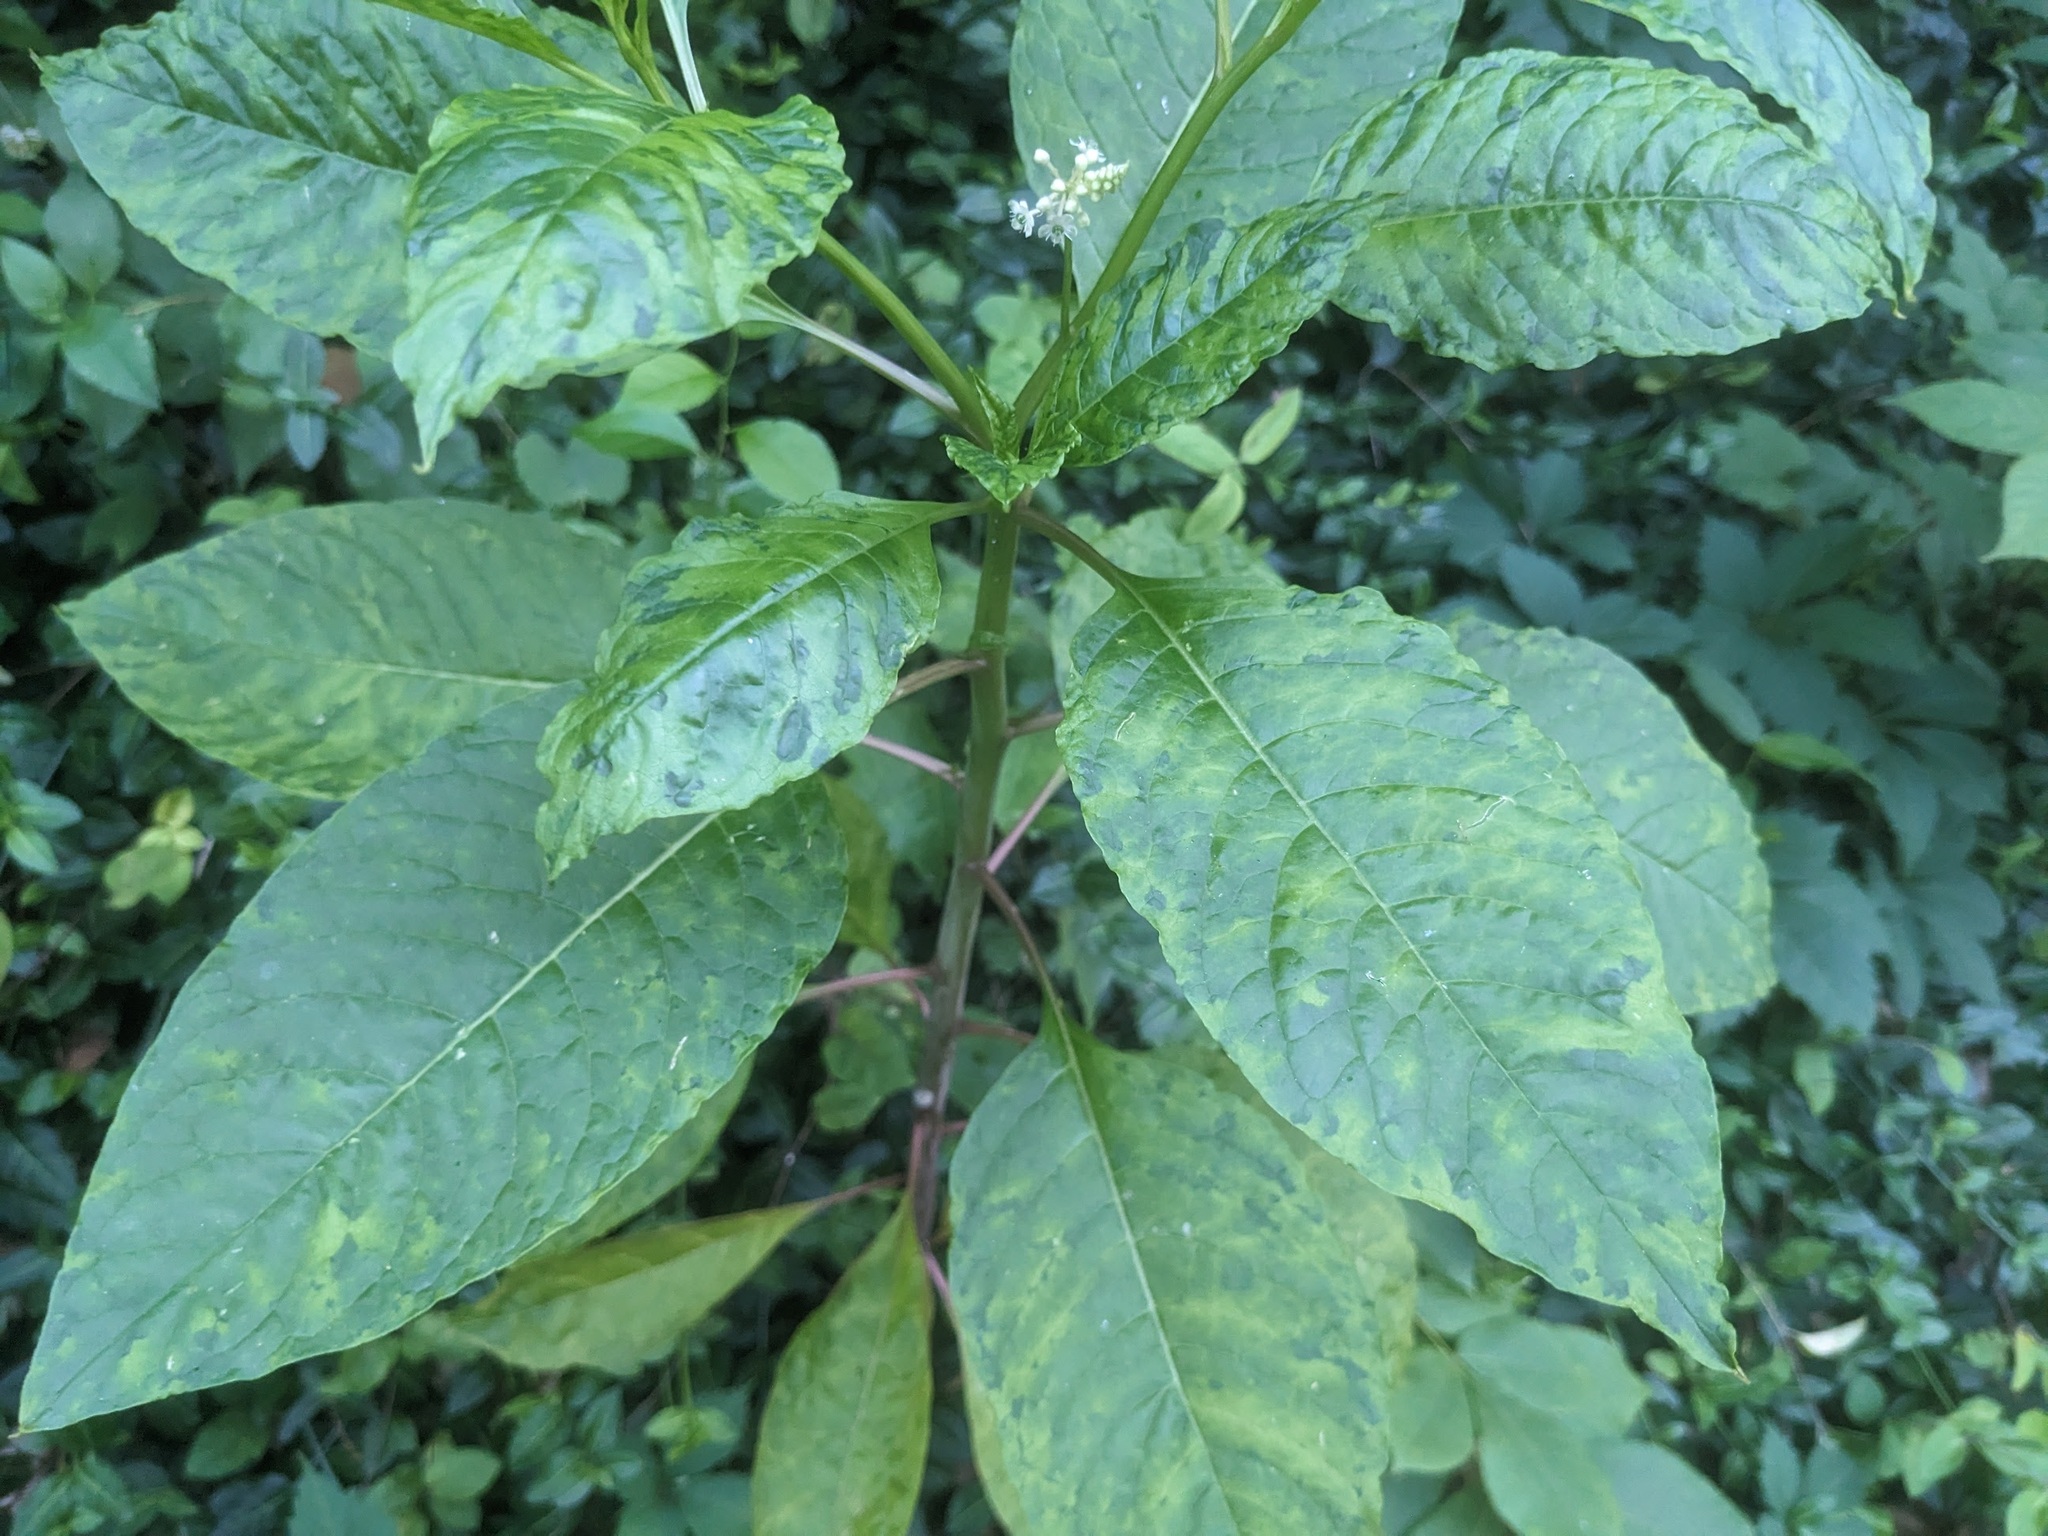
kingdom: Viruses
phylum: Pisuviricota
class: Stelpaviricetes
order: Patatavirales
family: Potyviridae
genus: Potyvirus
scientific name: Potyvirus Pokeweed mosaic virus
